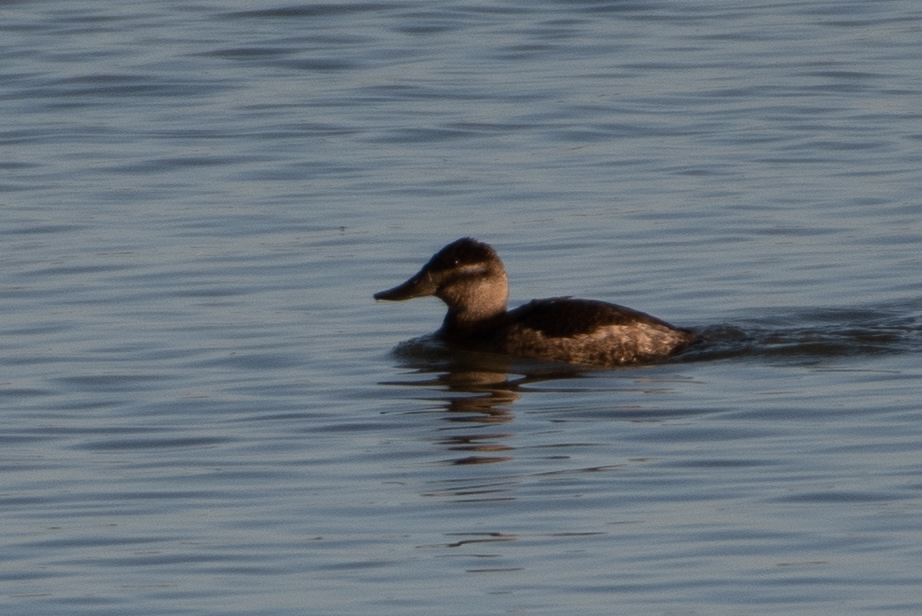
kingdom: Animalia
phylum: Chordata
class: Aves
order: Anseriformes
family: Anatidae
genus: Oxyura
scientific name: Oxyura jamaicensis
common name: Ruddy duck
